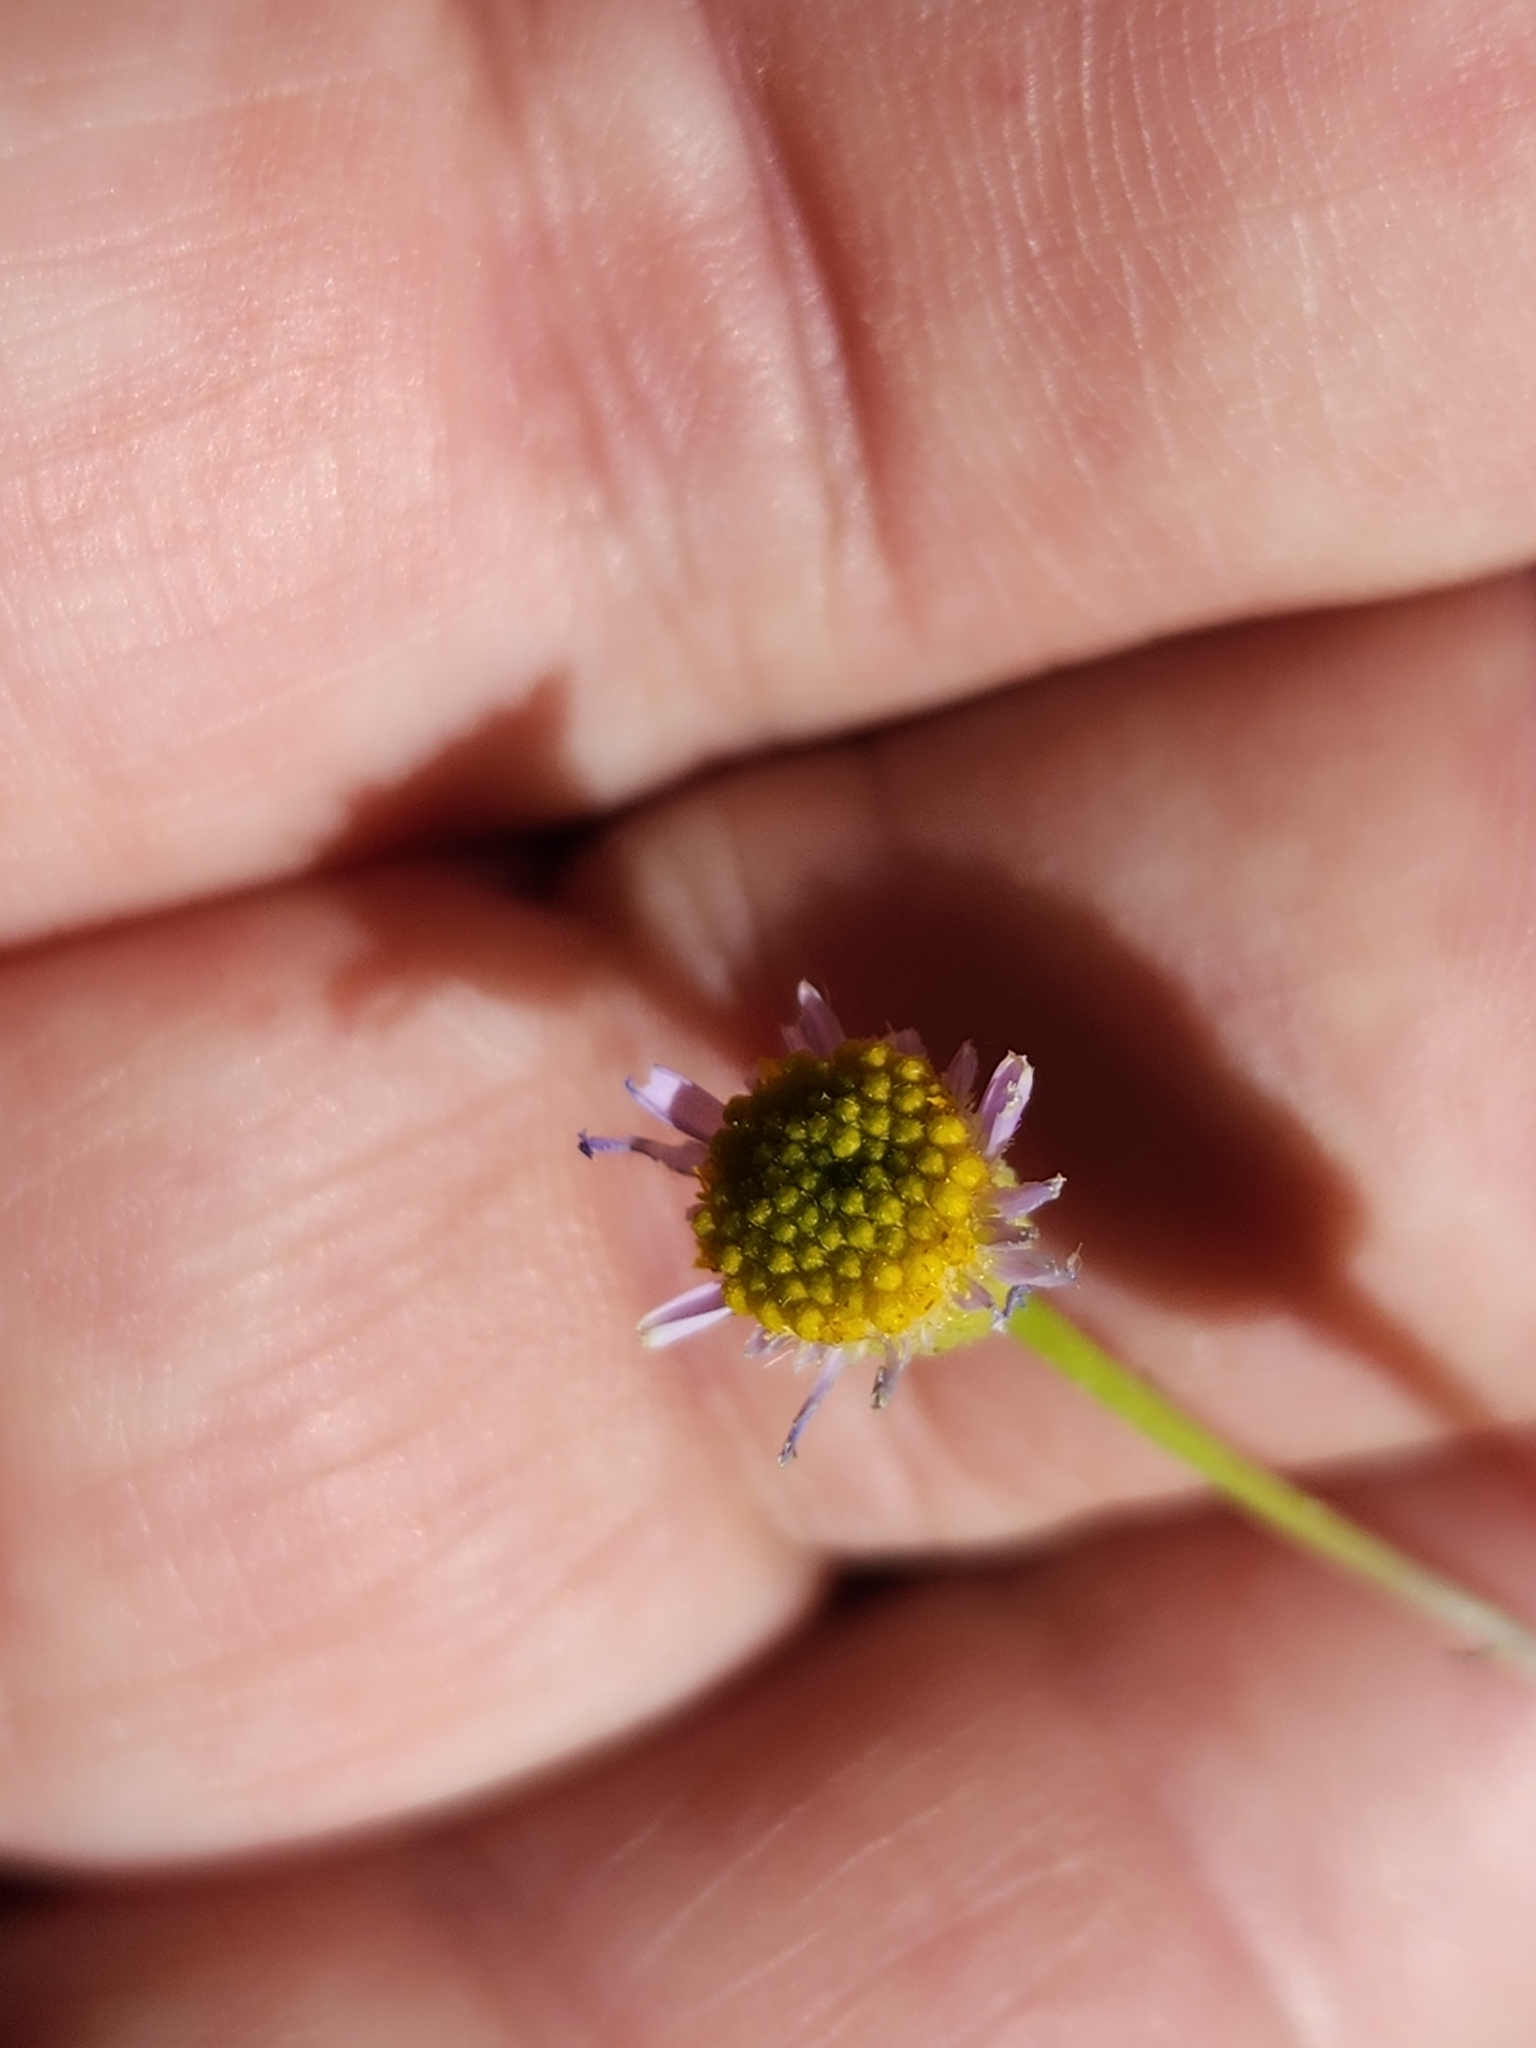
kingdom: Plantae
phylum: Tracheophyta
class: Magnoliopsida
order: Asterales
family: Asteraceae
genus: Erigeron
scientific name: Erigeron foliosus
